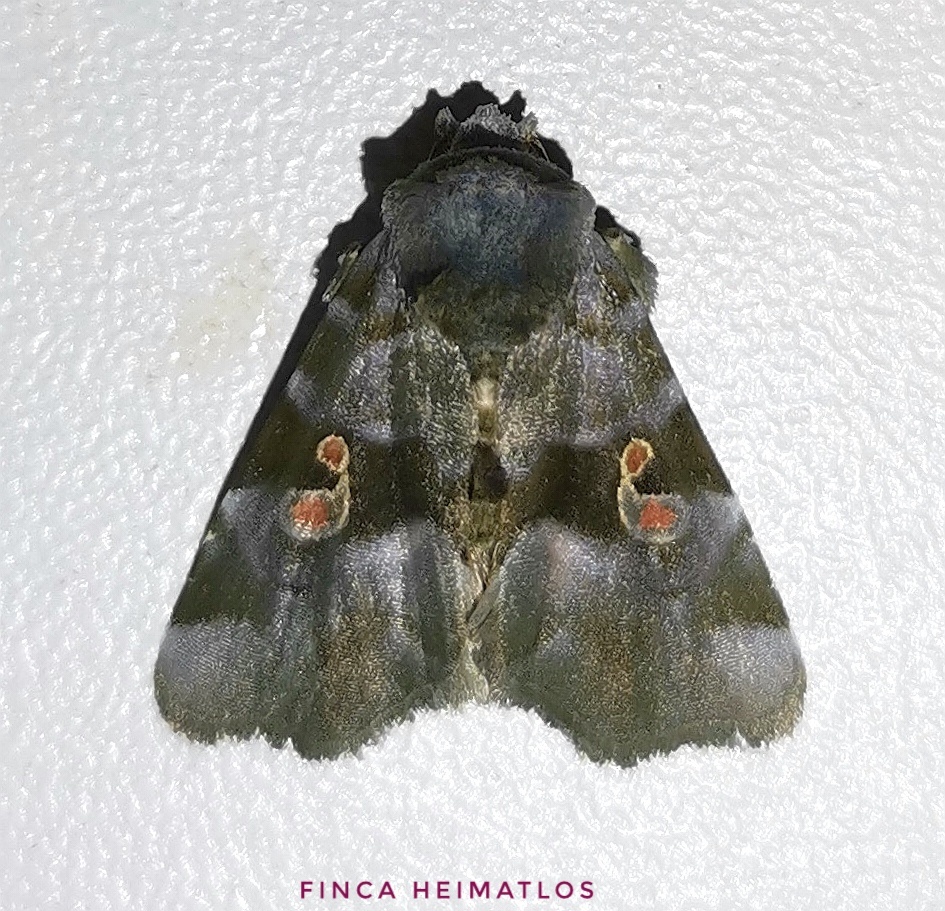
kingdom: Animalia
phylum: Arthropoda
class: Insecta
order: Lepidoptera
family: Noctuidae
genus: Fracara
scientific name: Fracara viridata
